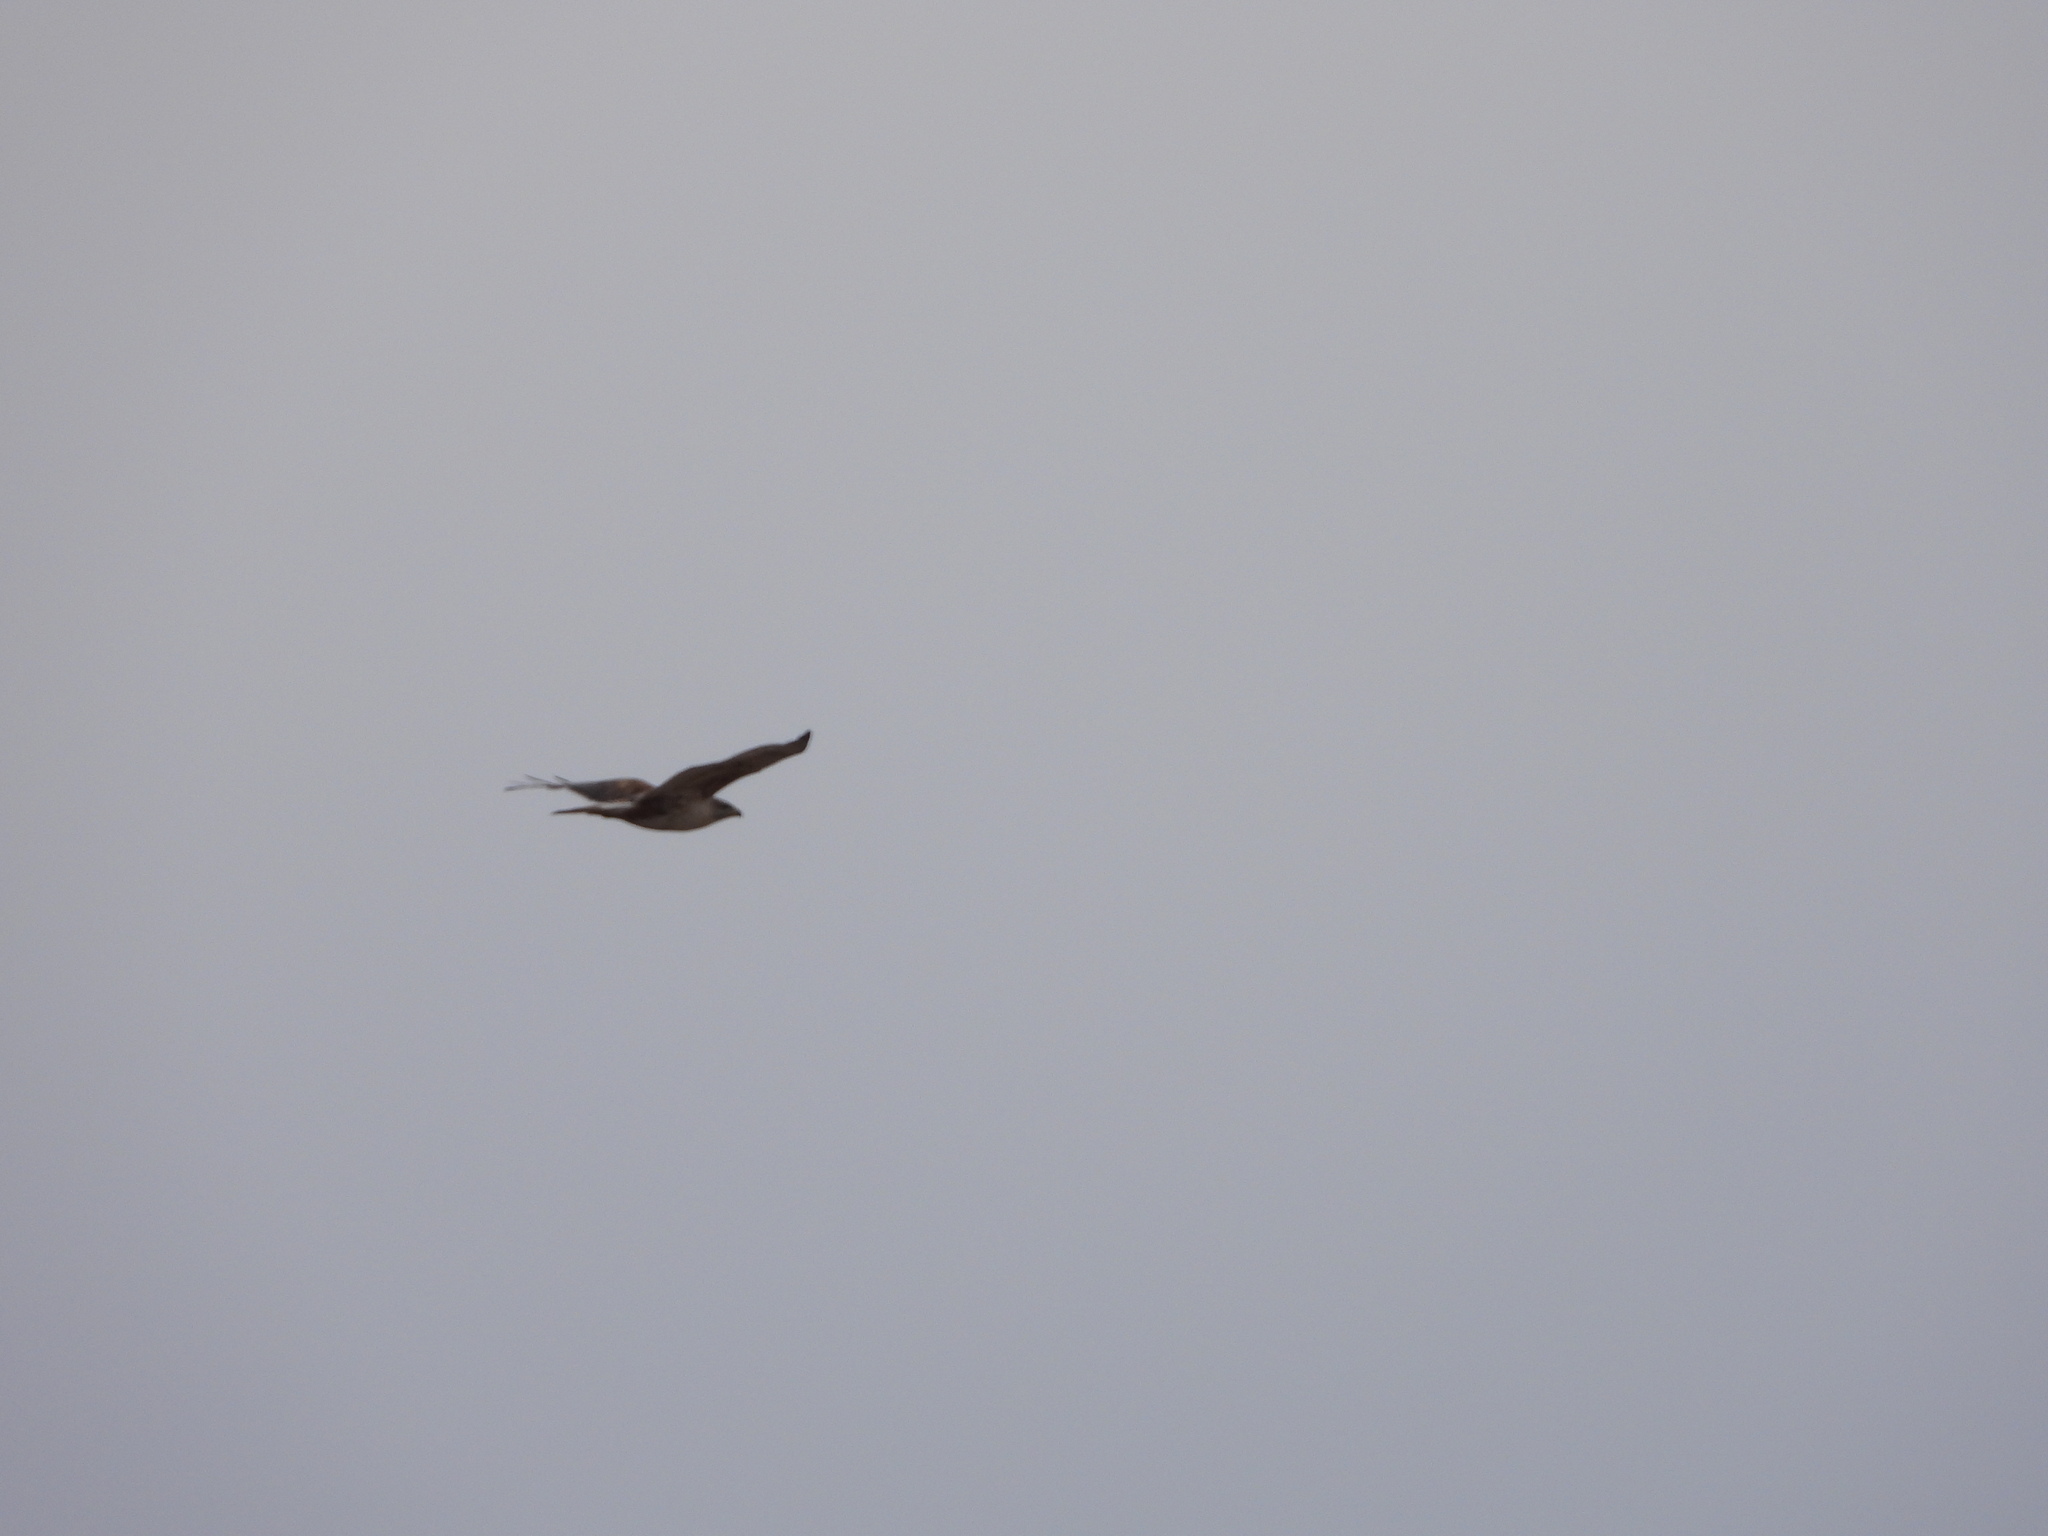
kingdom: Animalia
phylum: Chordata
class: Aves
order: Accipitriformes
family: Accipitridae
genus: Buteo
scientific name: Buteo regalis
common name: Ferruginous hawk
